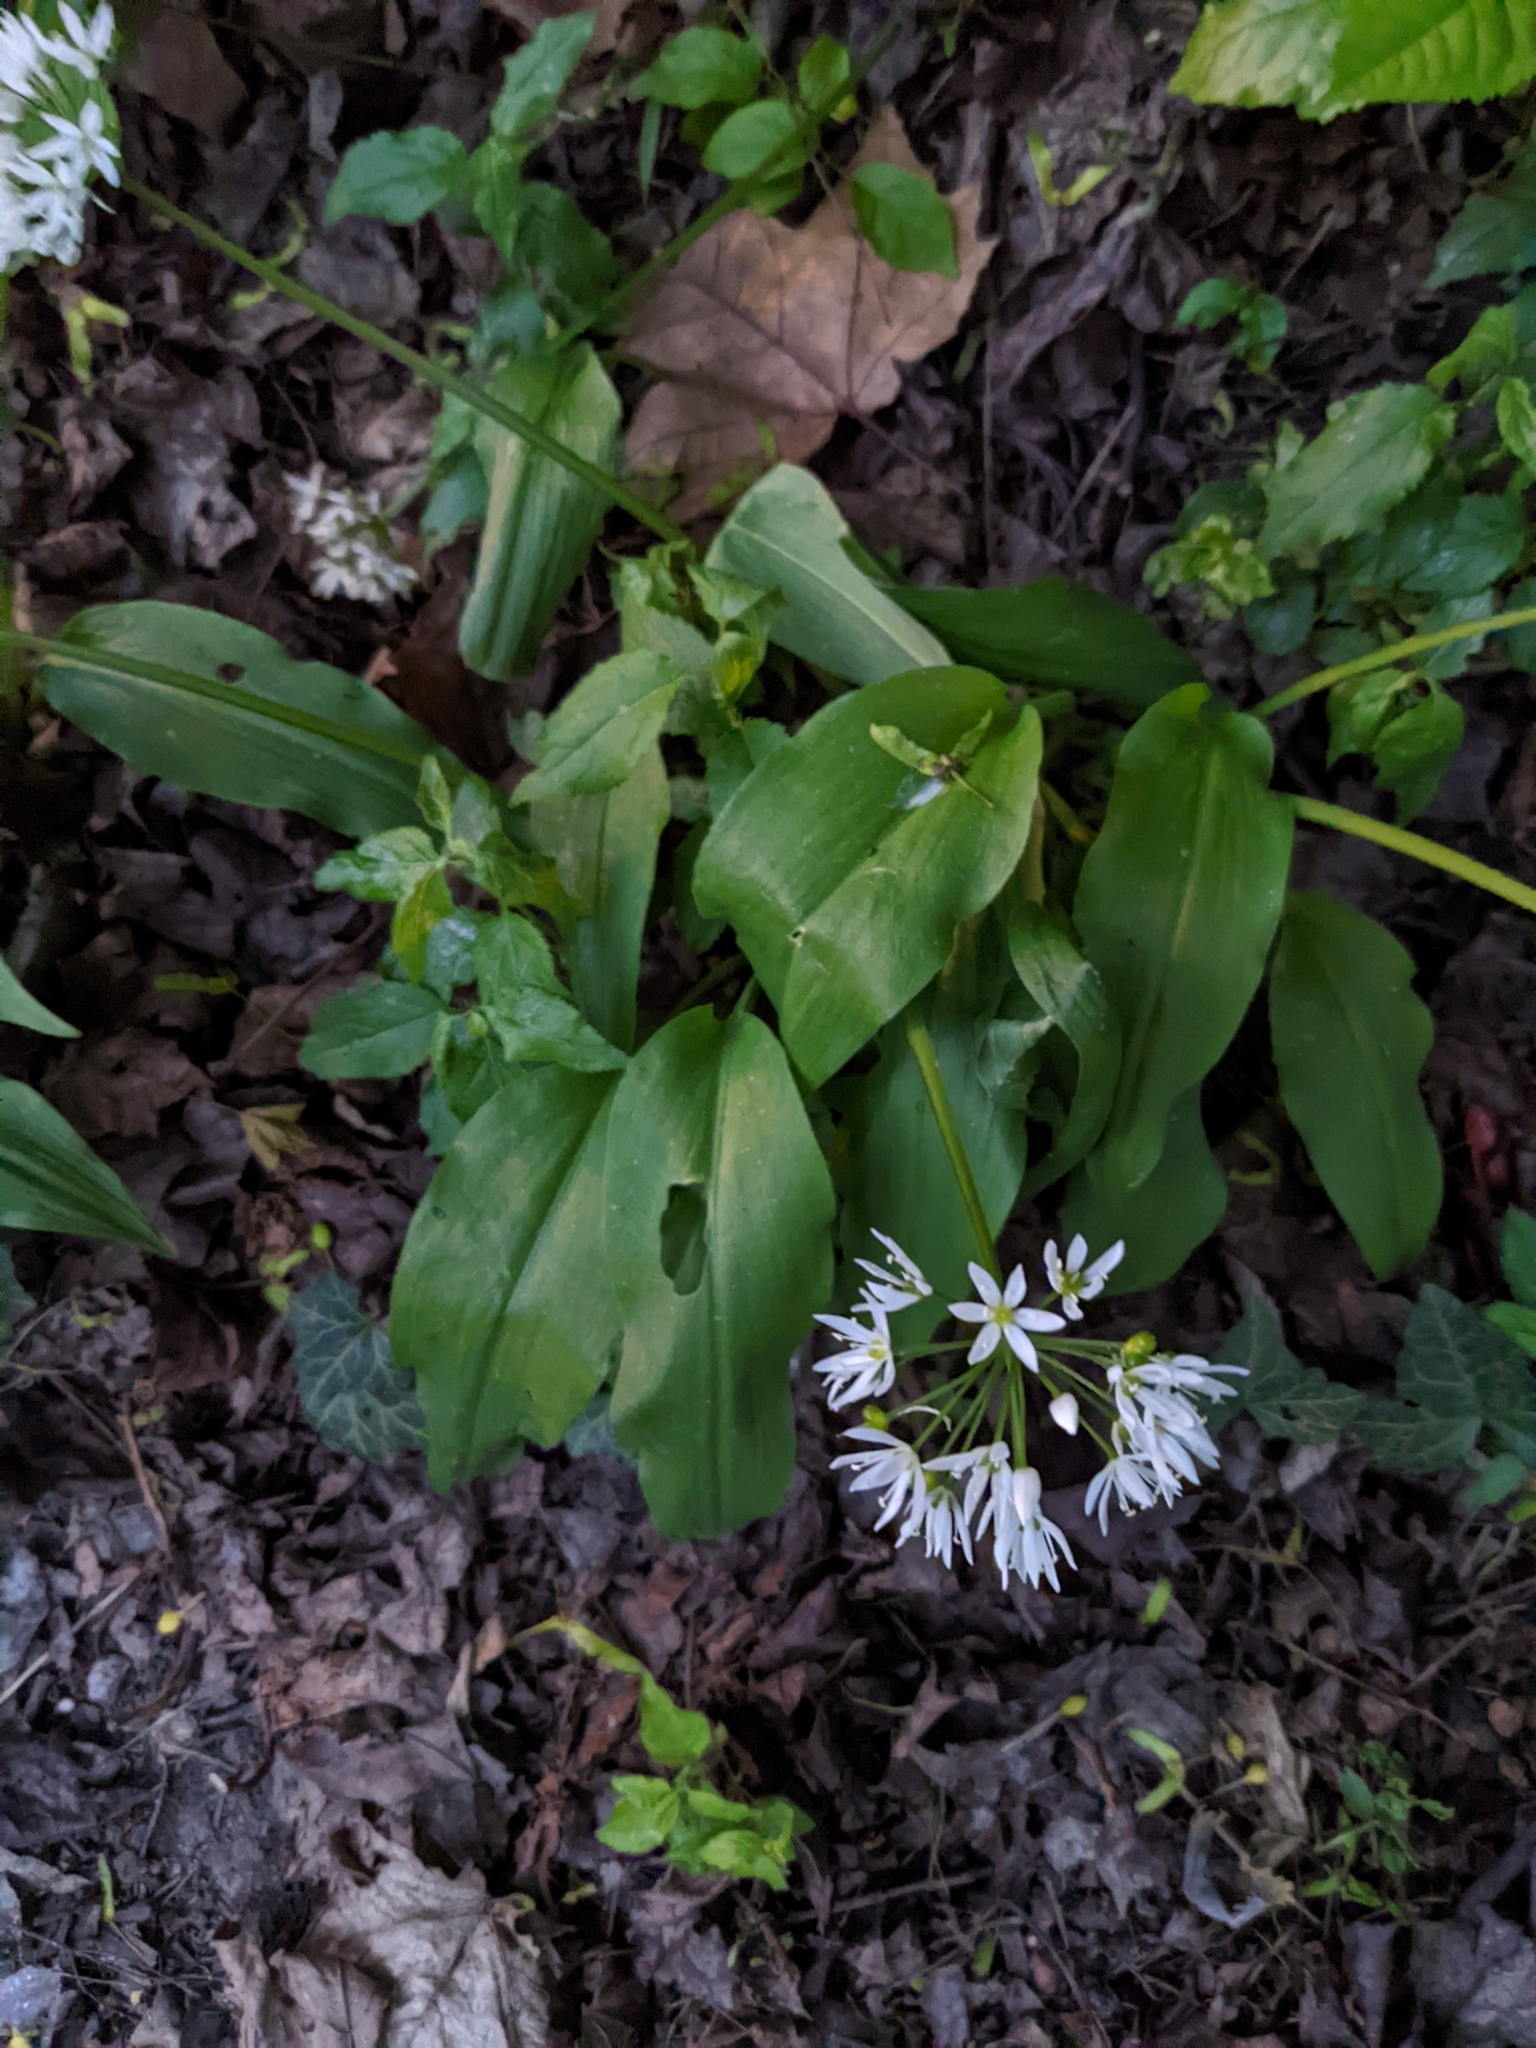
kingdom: Plantae
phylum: Tracheophyta
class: Liliopsida
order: Asparagales
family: Amaryllidaceae
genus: Allium
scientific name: Allium ursinum
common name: Ramsons
